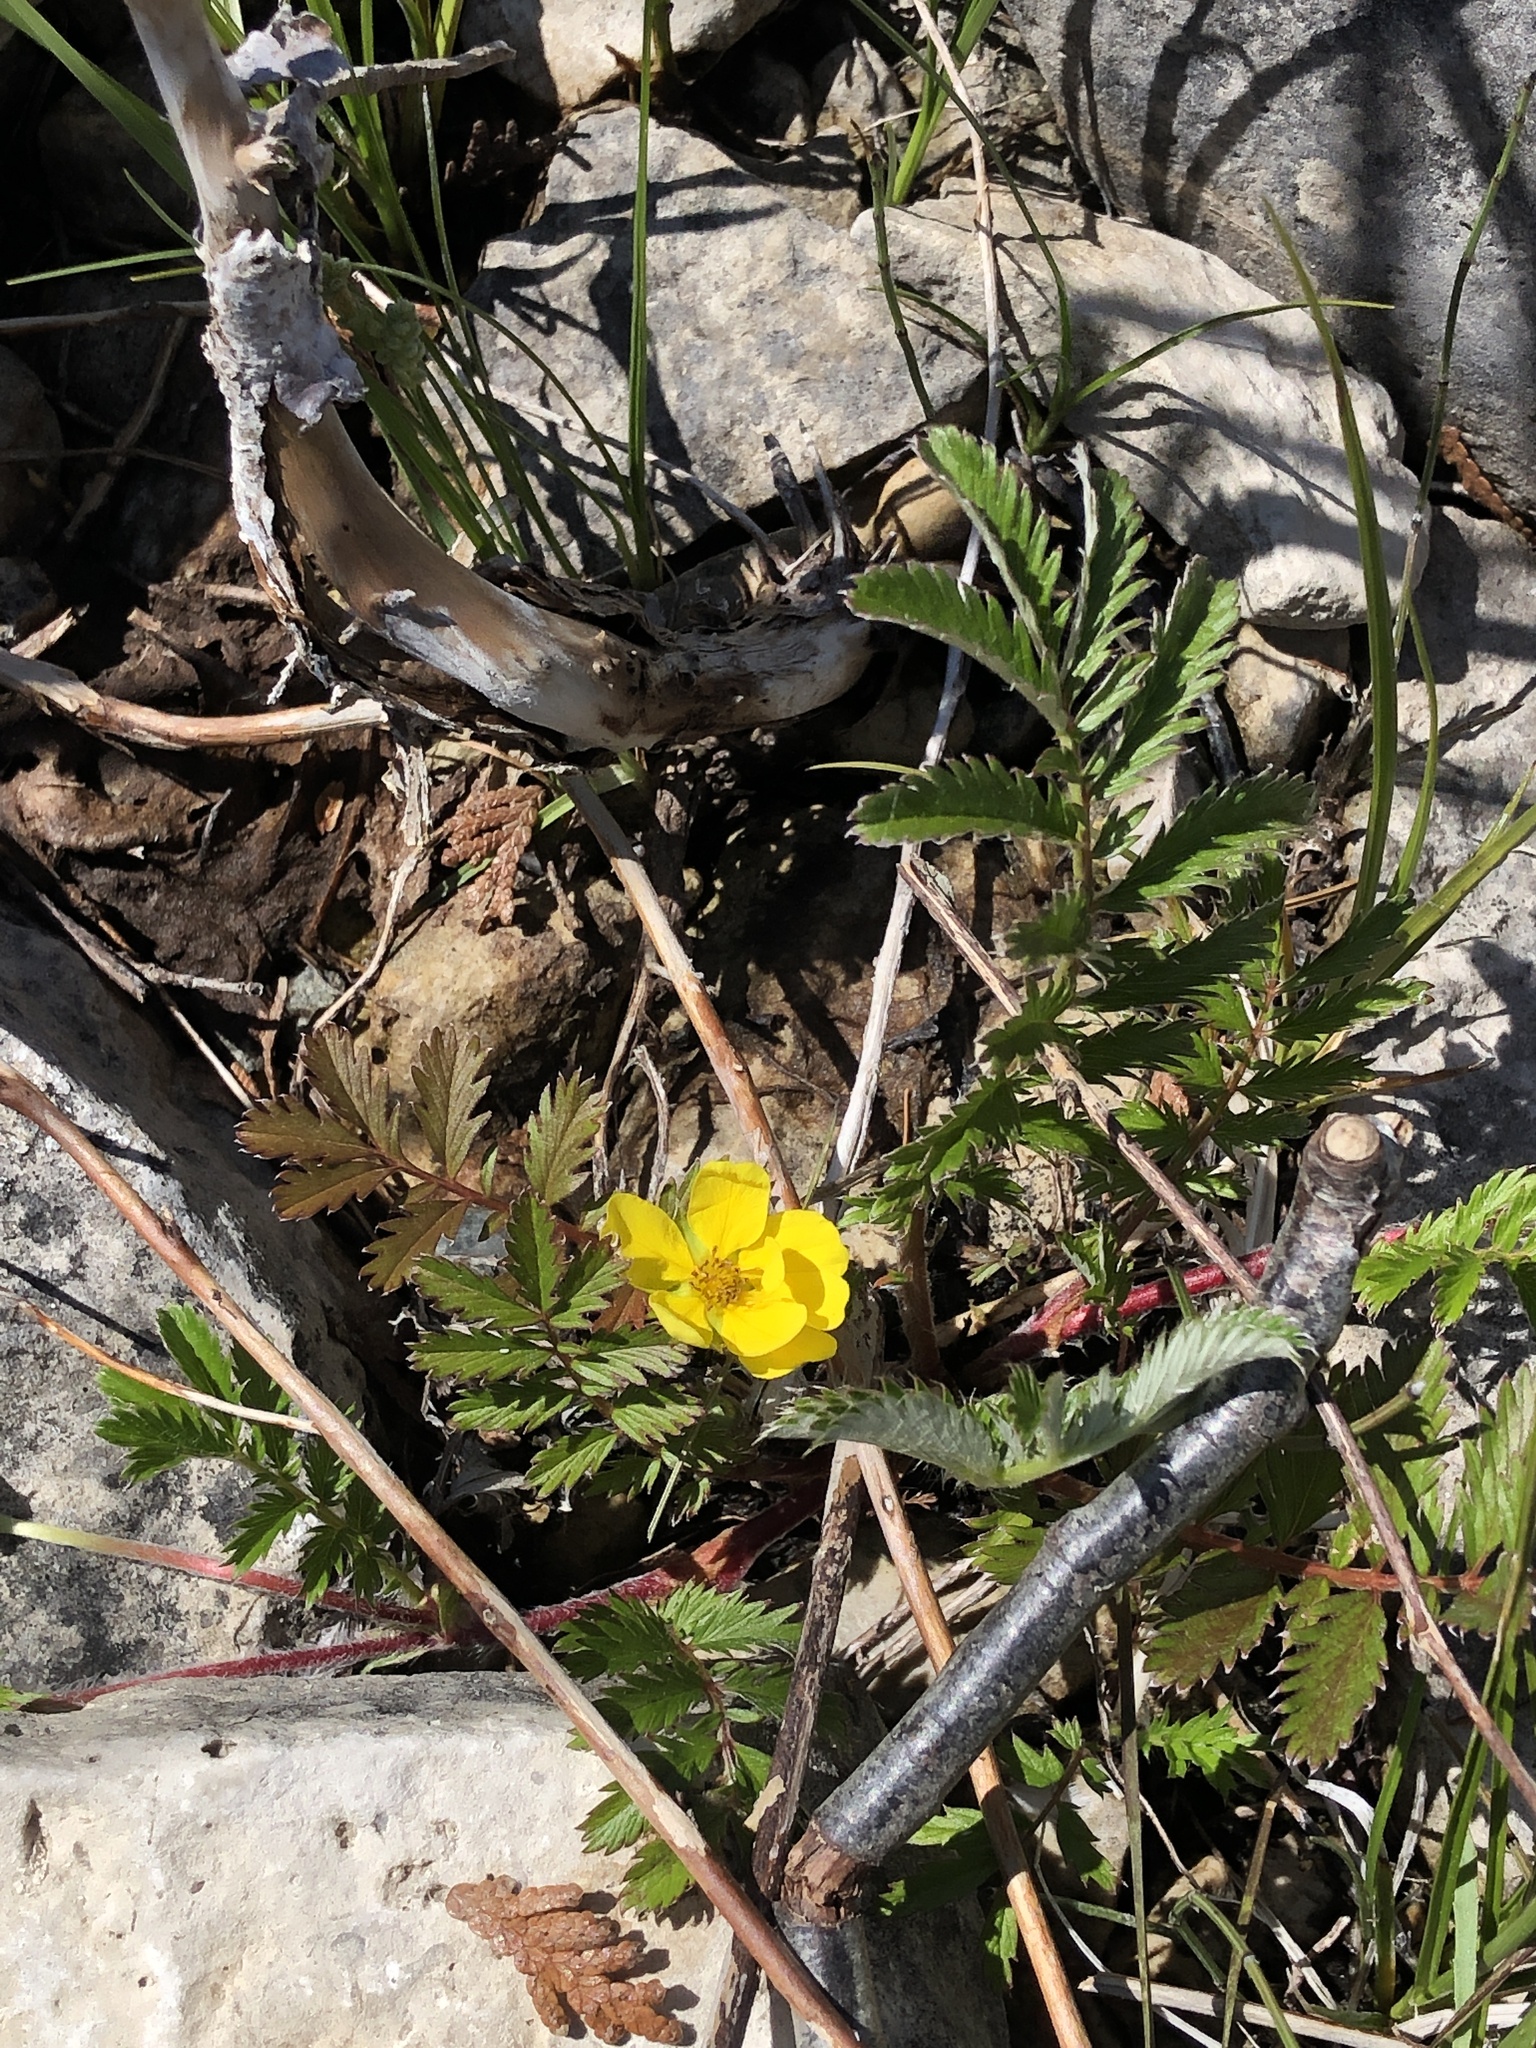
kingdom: Plantae
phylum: Tracheophyta
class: Magnoliopsida
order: Rosales
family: Rosaceae
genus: Argentina
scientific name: Argentina anserina
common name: Common silverweed
